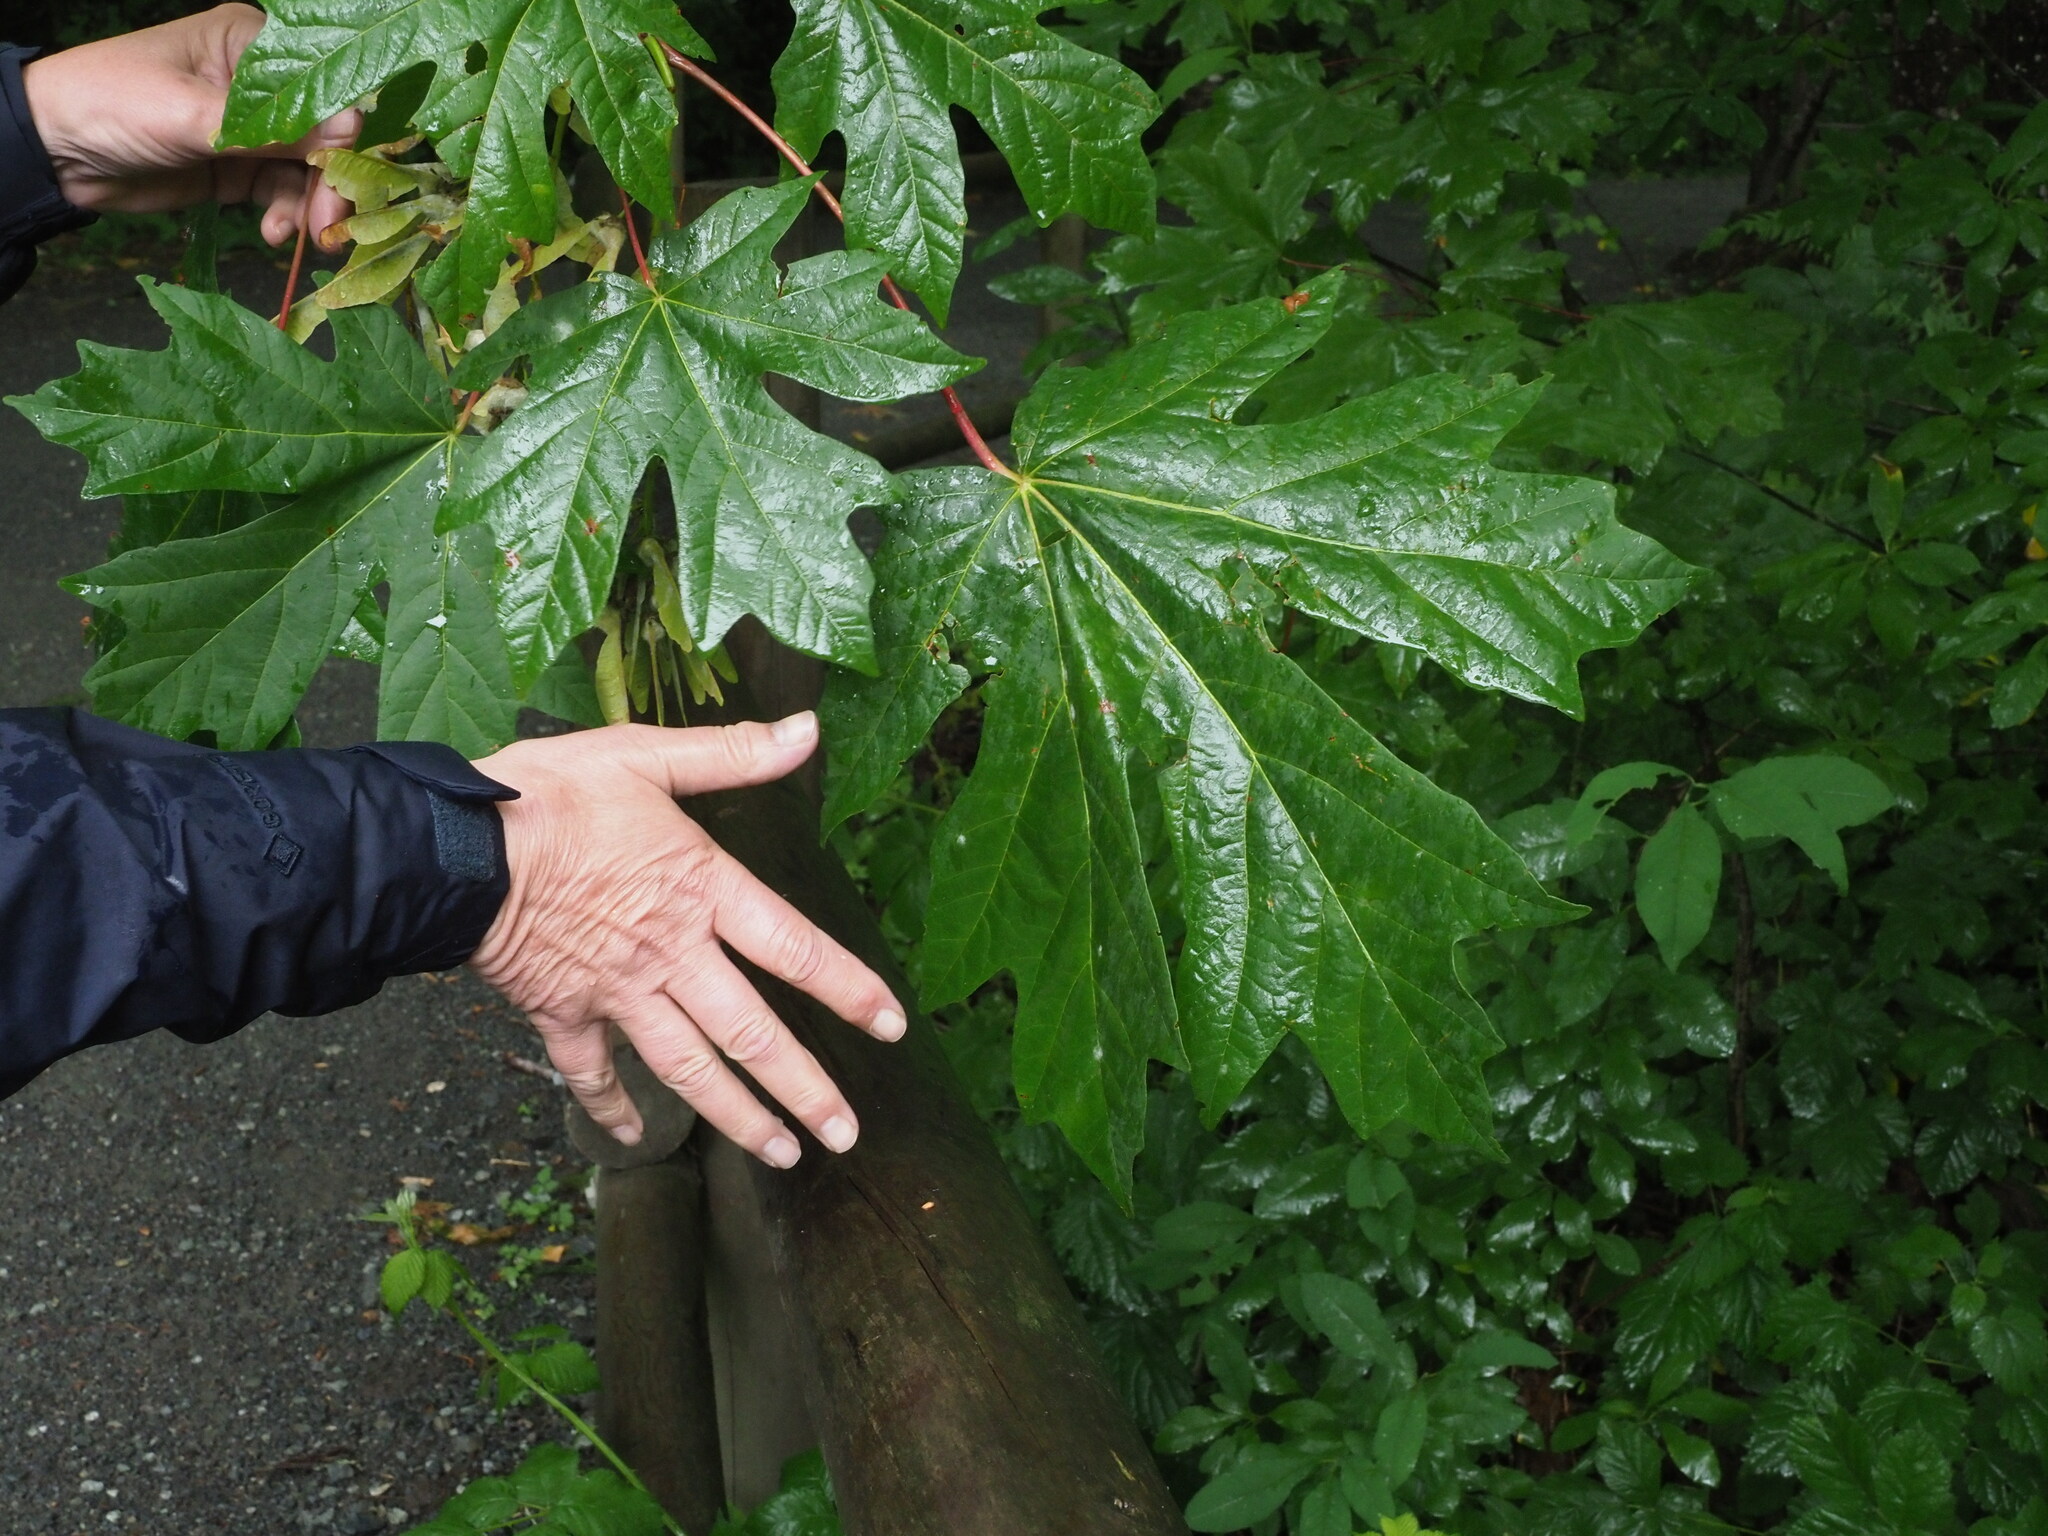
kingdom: Plantae
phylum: Tracheophyta
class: Magnoliopsida
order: Sapindales
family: Sapindaceae
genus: Acer
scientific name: Acer macrophyllum
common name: Oregon maple
